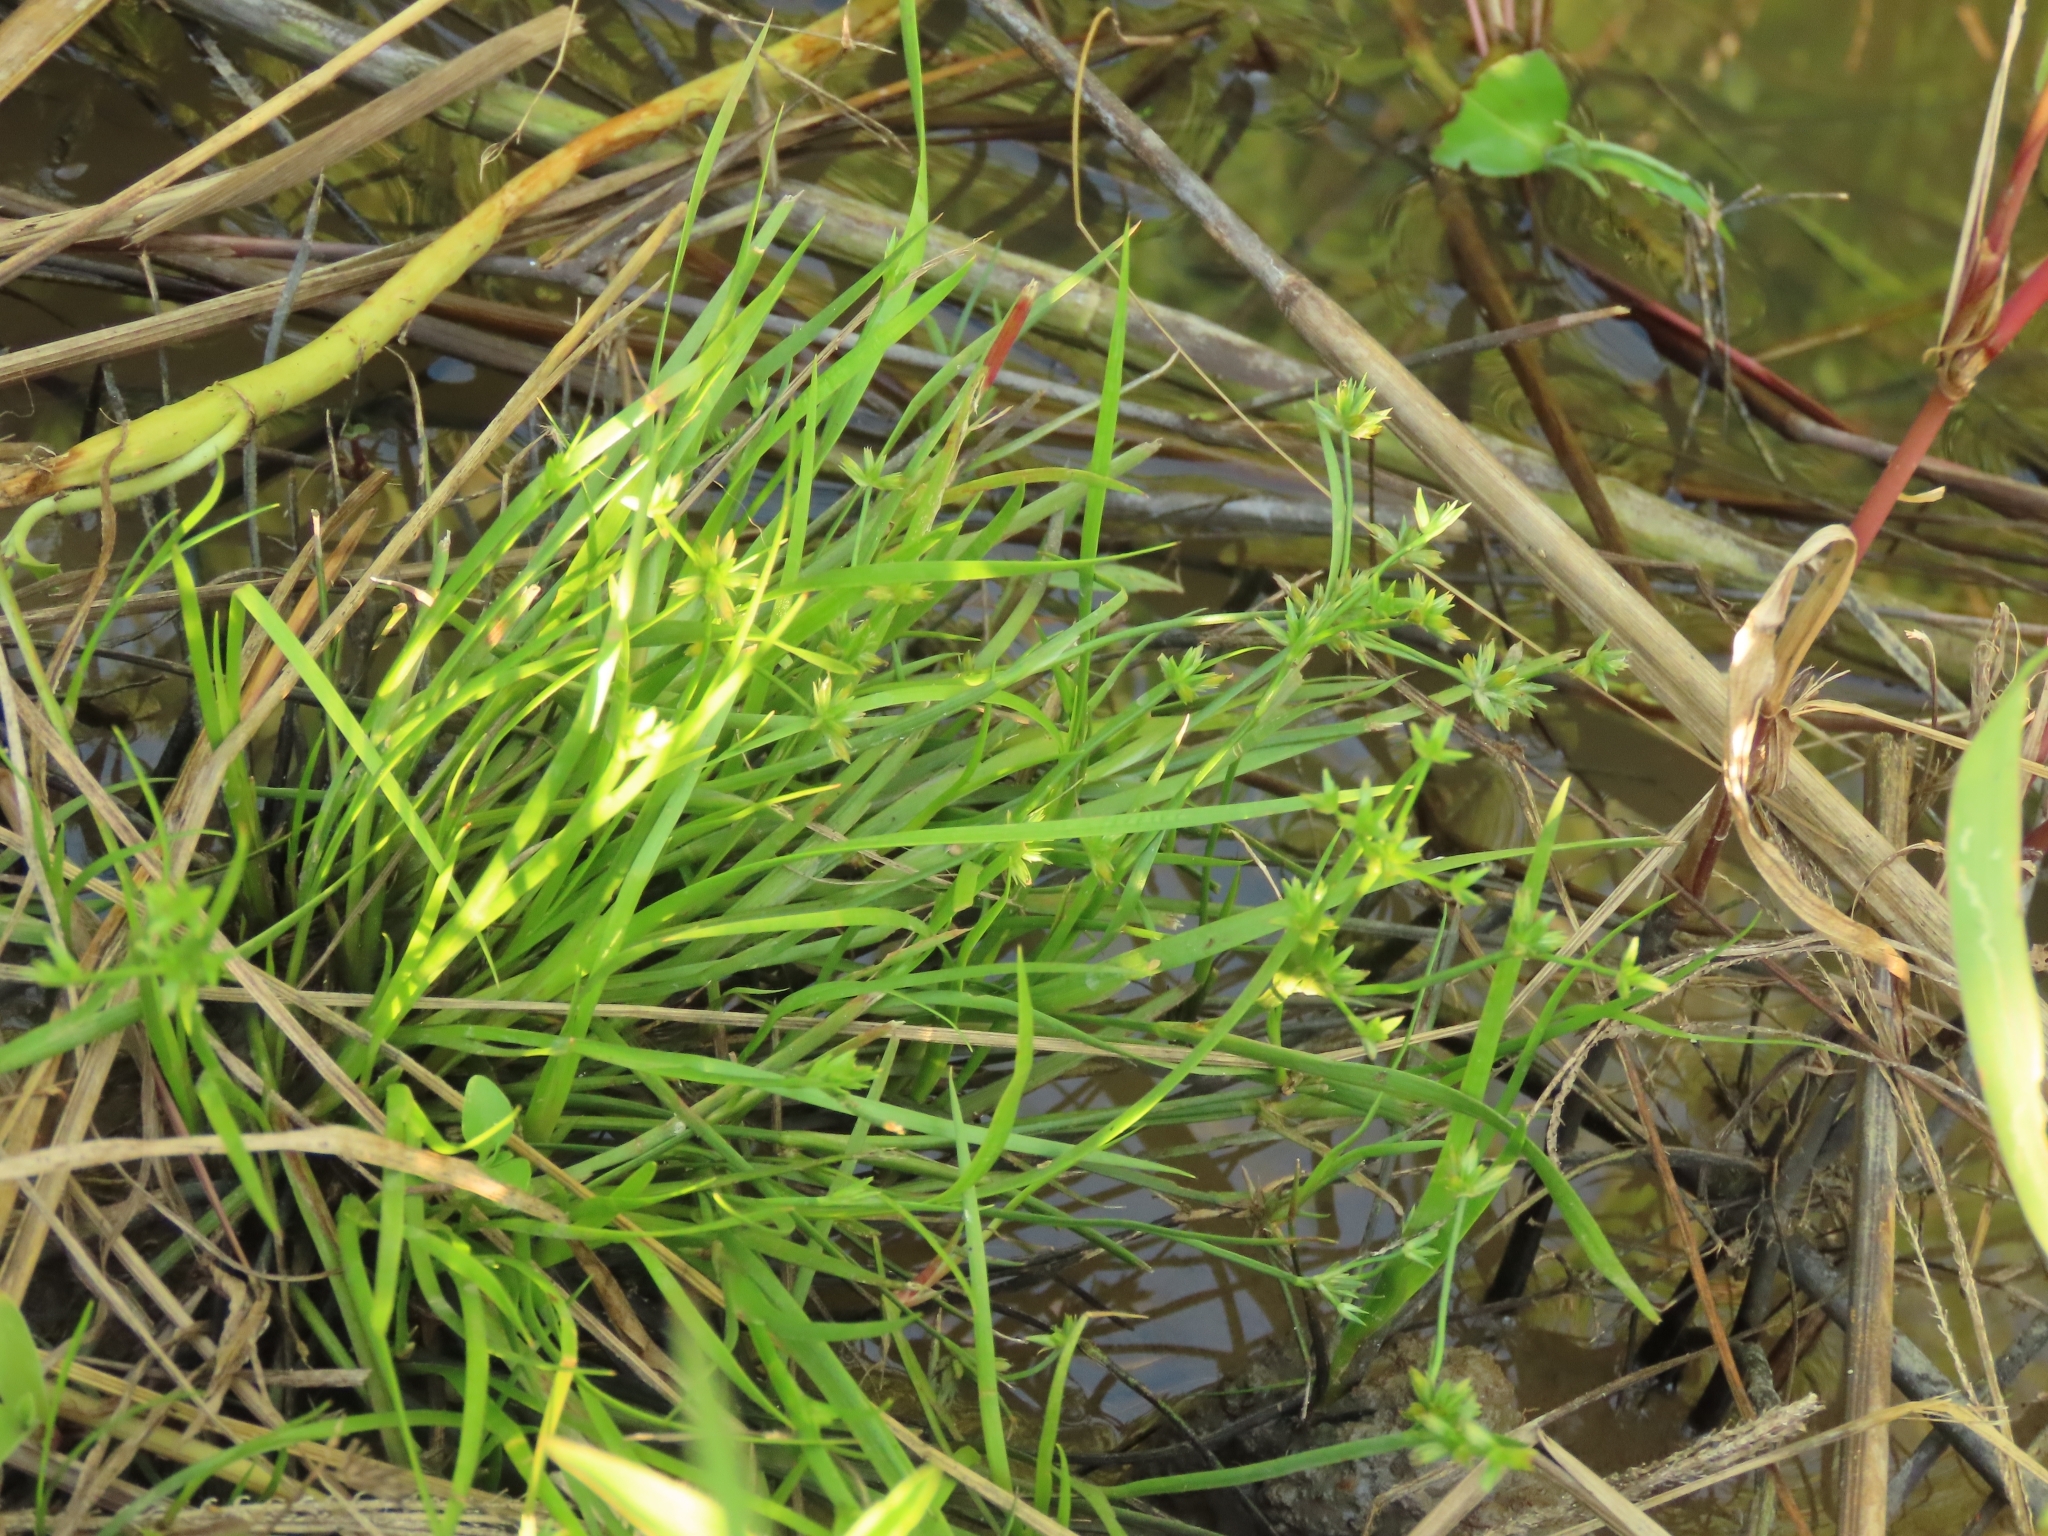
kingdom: Plantae
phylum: Tracheophyta
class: Liliopsida
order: Poales
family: Juncaceae
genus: Juncus
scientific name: Juncus prismatocarpus
